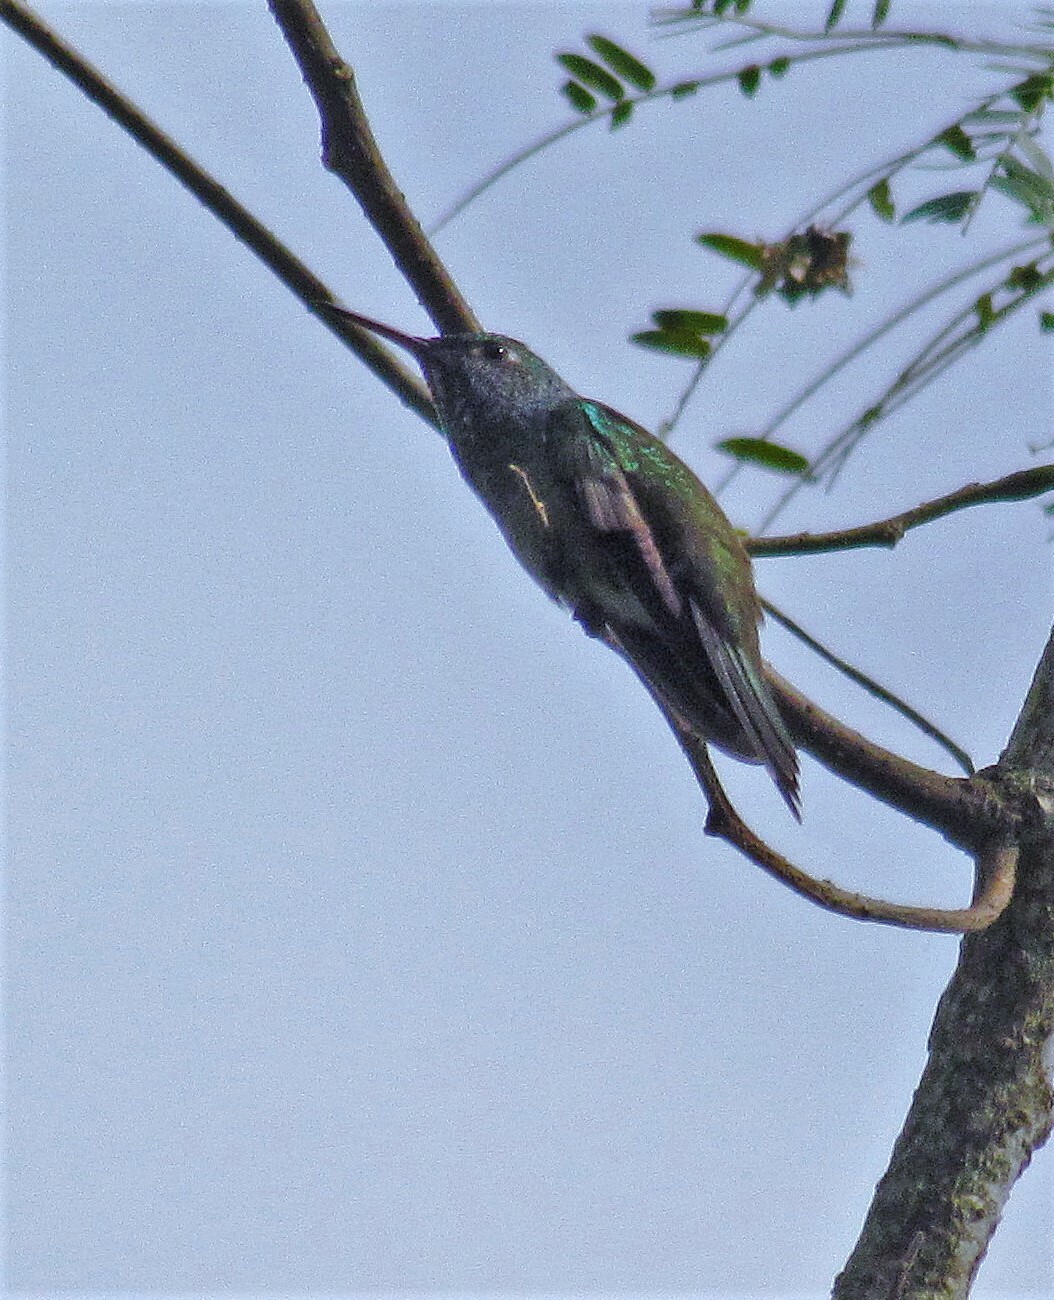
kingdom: Animalia
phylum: Chordata
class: Aves
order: Apodiformes
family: Trochilidae
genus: Chrysuronia
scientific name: Chrysuronia versicolor
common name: Versicolored emerald
